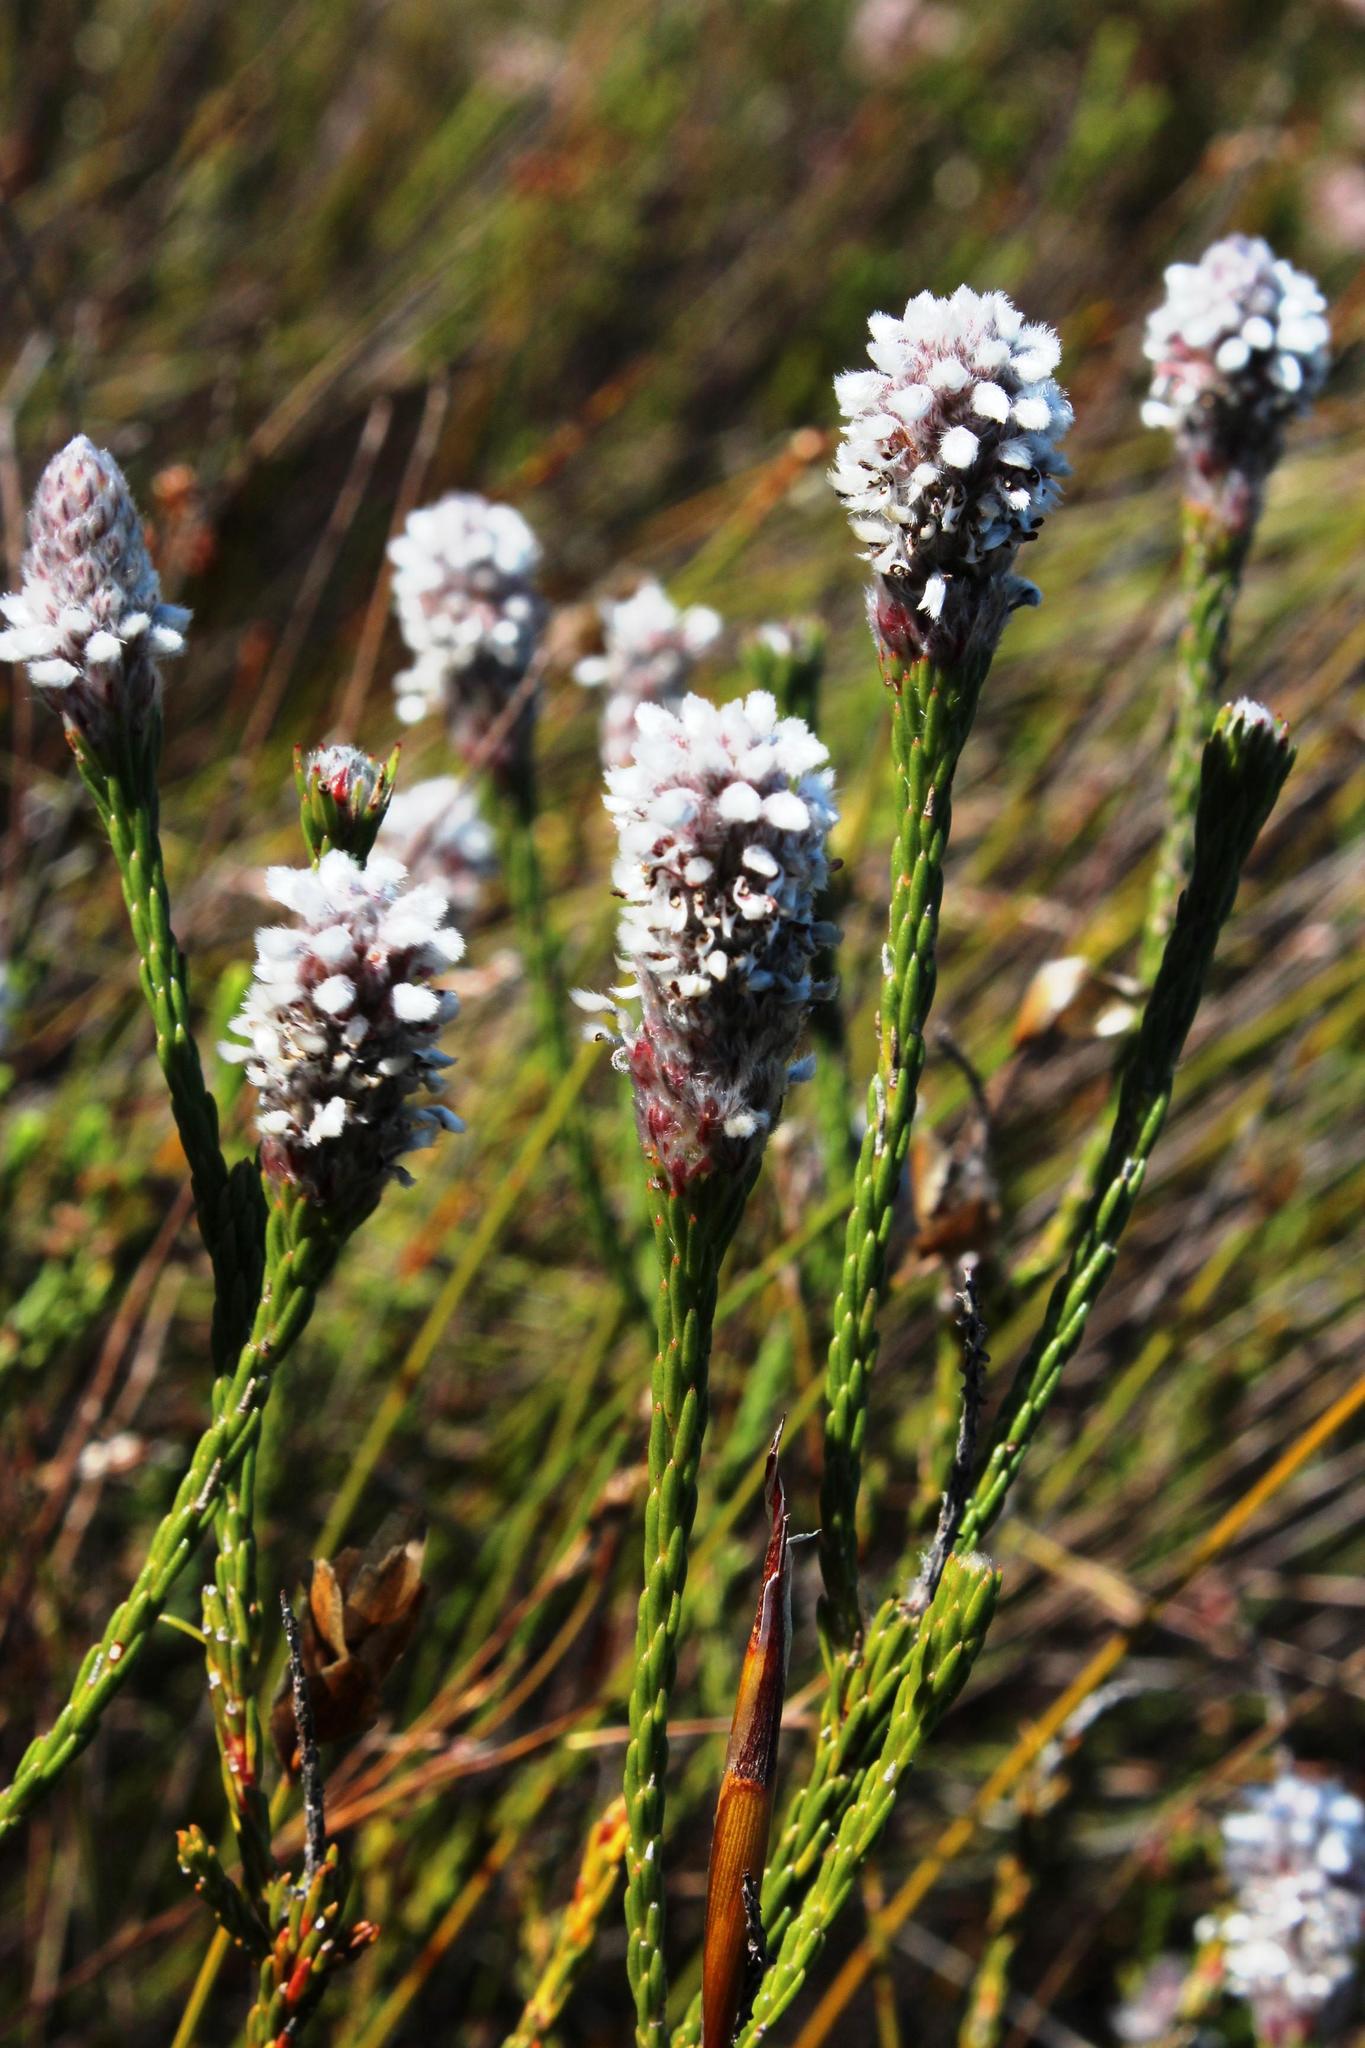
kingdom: Plantae
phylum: Tracheophyta
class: Magnoliopsida
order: Proteales
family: Proteaceae
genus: Spatalla
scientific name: Spatalla ericoides
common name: Erica-leaf spoon
